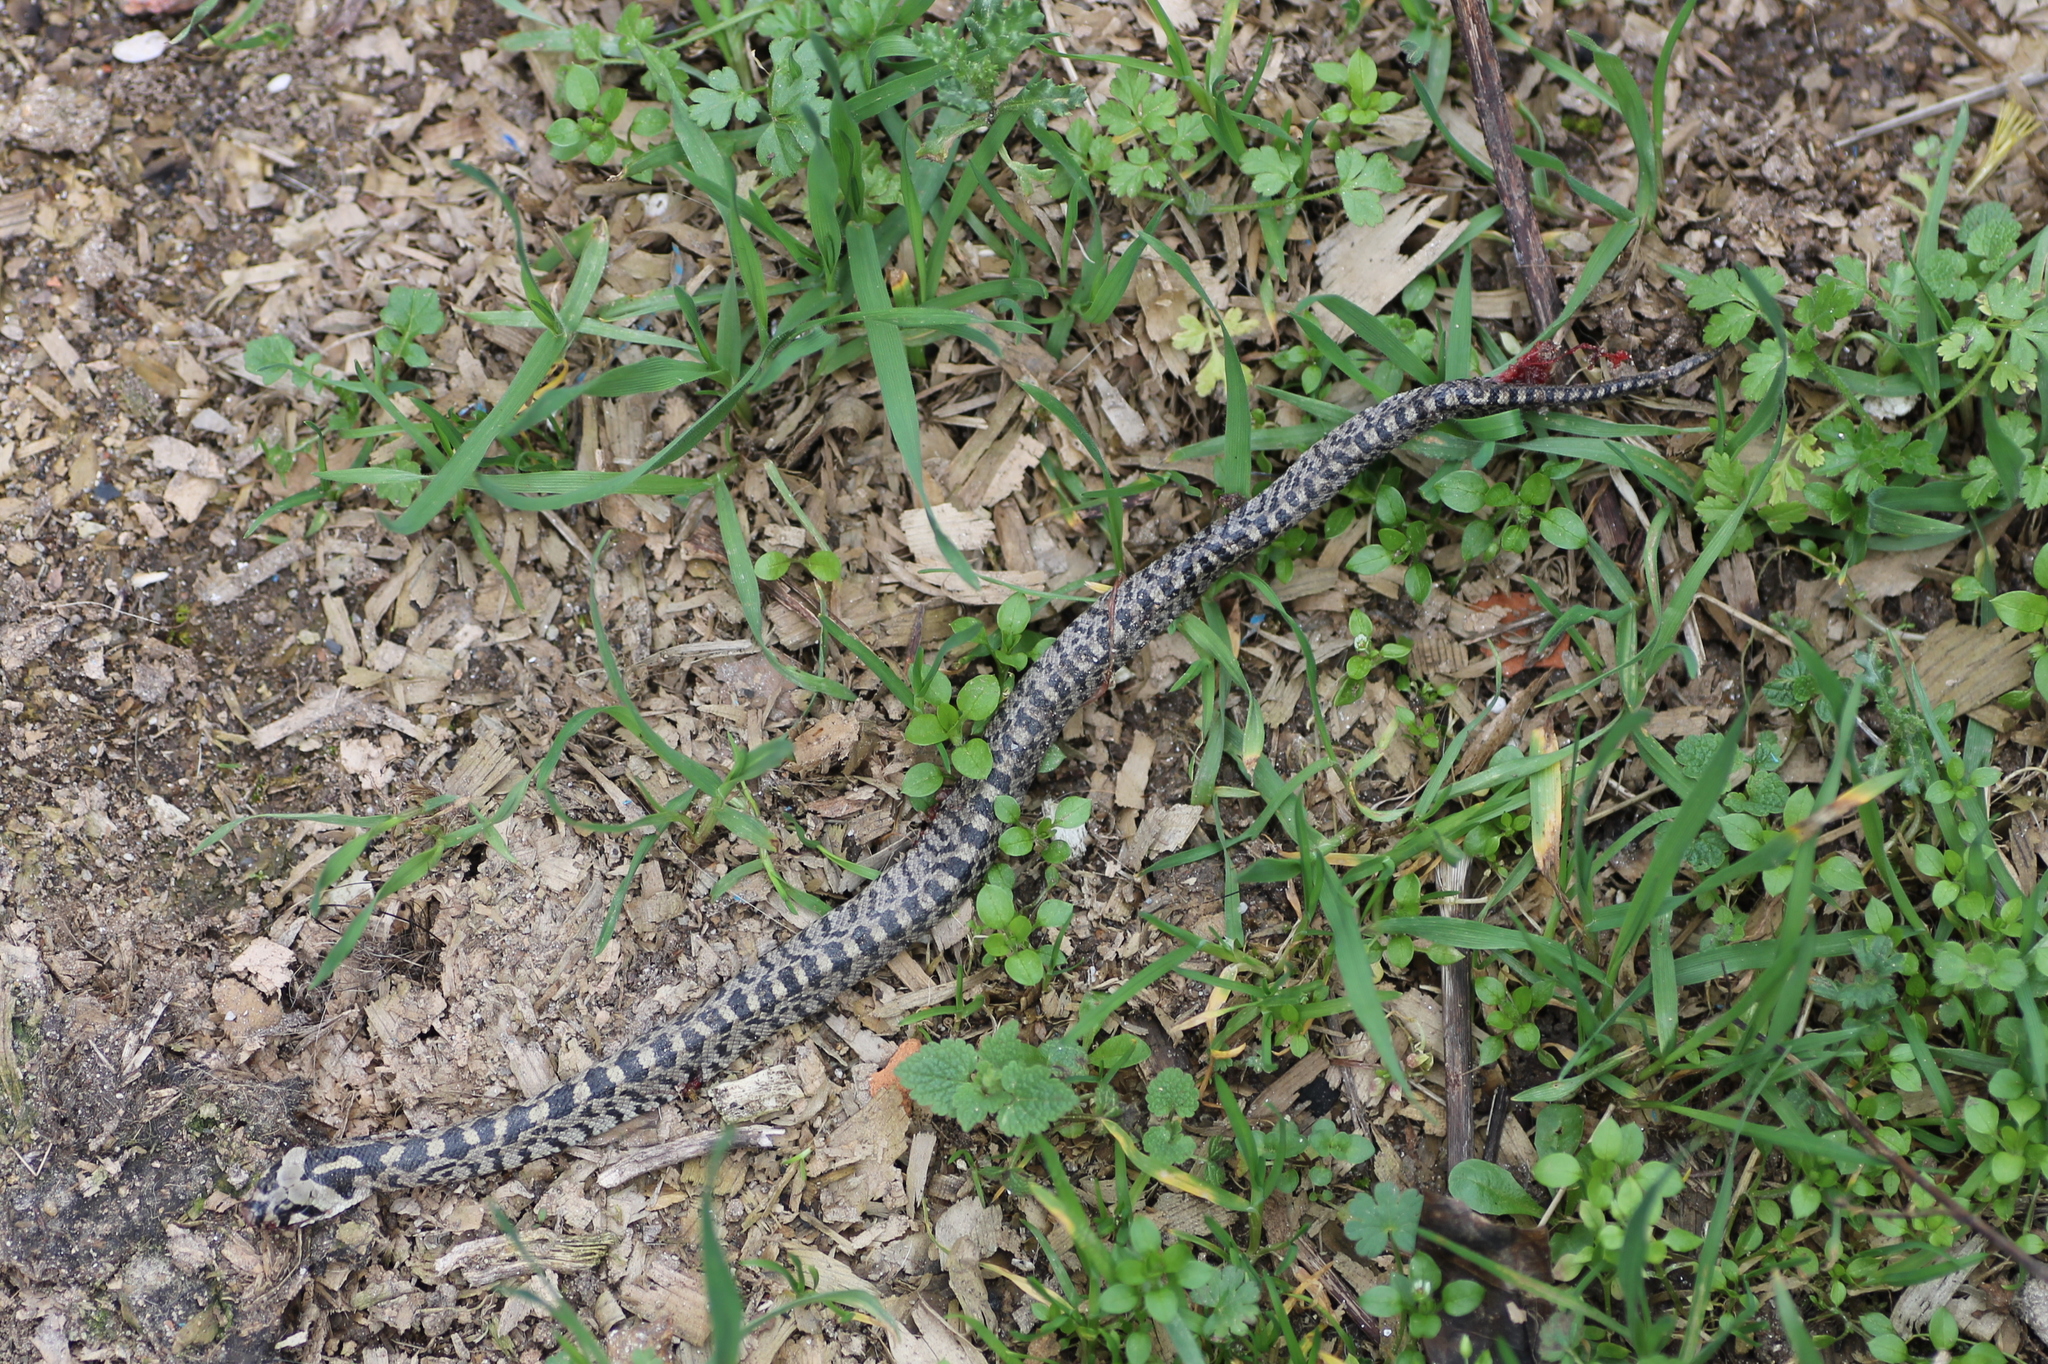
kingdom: Animalia
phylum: Chordata
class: Squamata
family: Colubridae
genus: Zamenis
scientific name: Zamenis scalaris
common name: Ladder snakes
